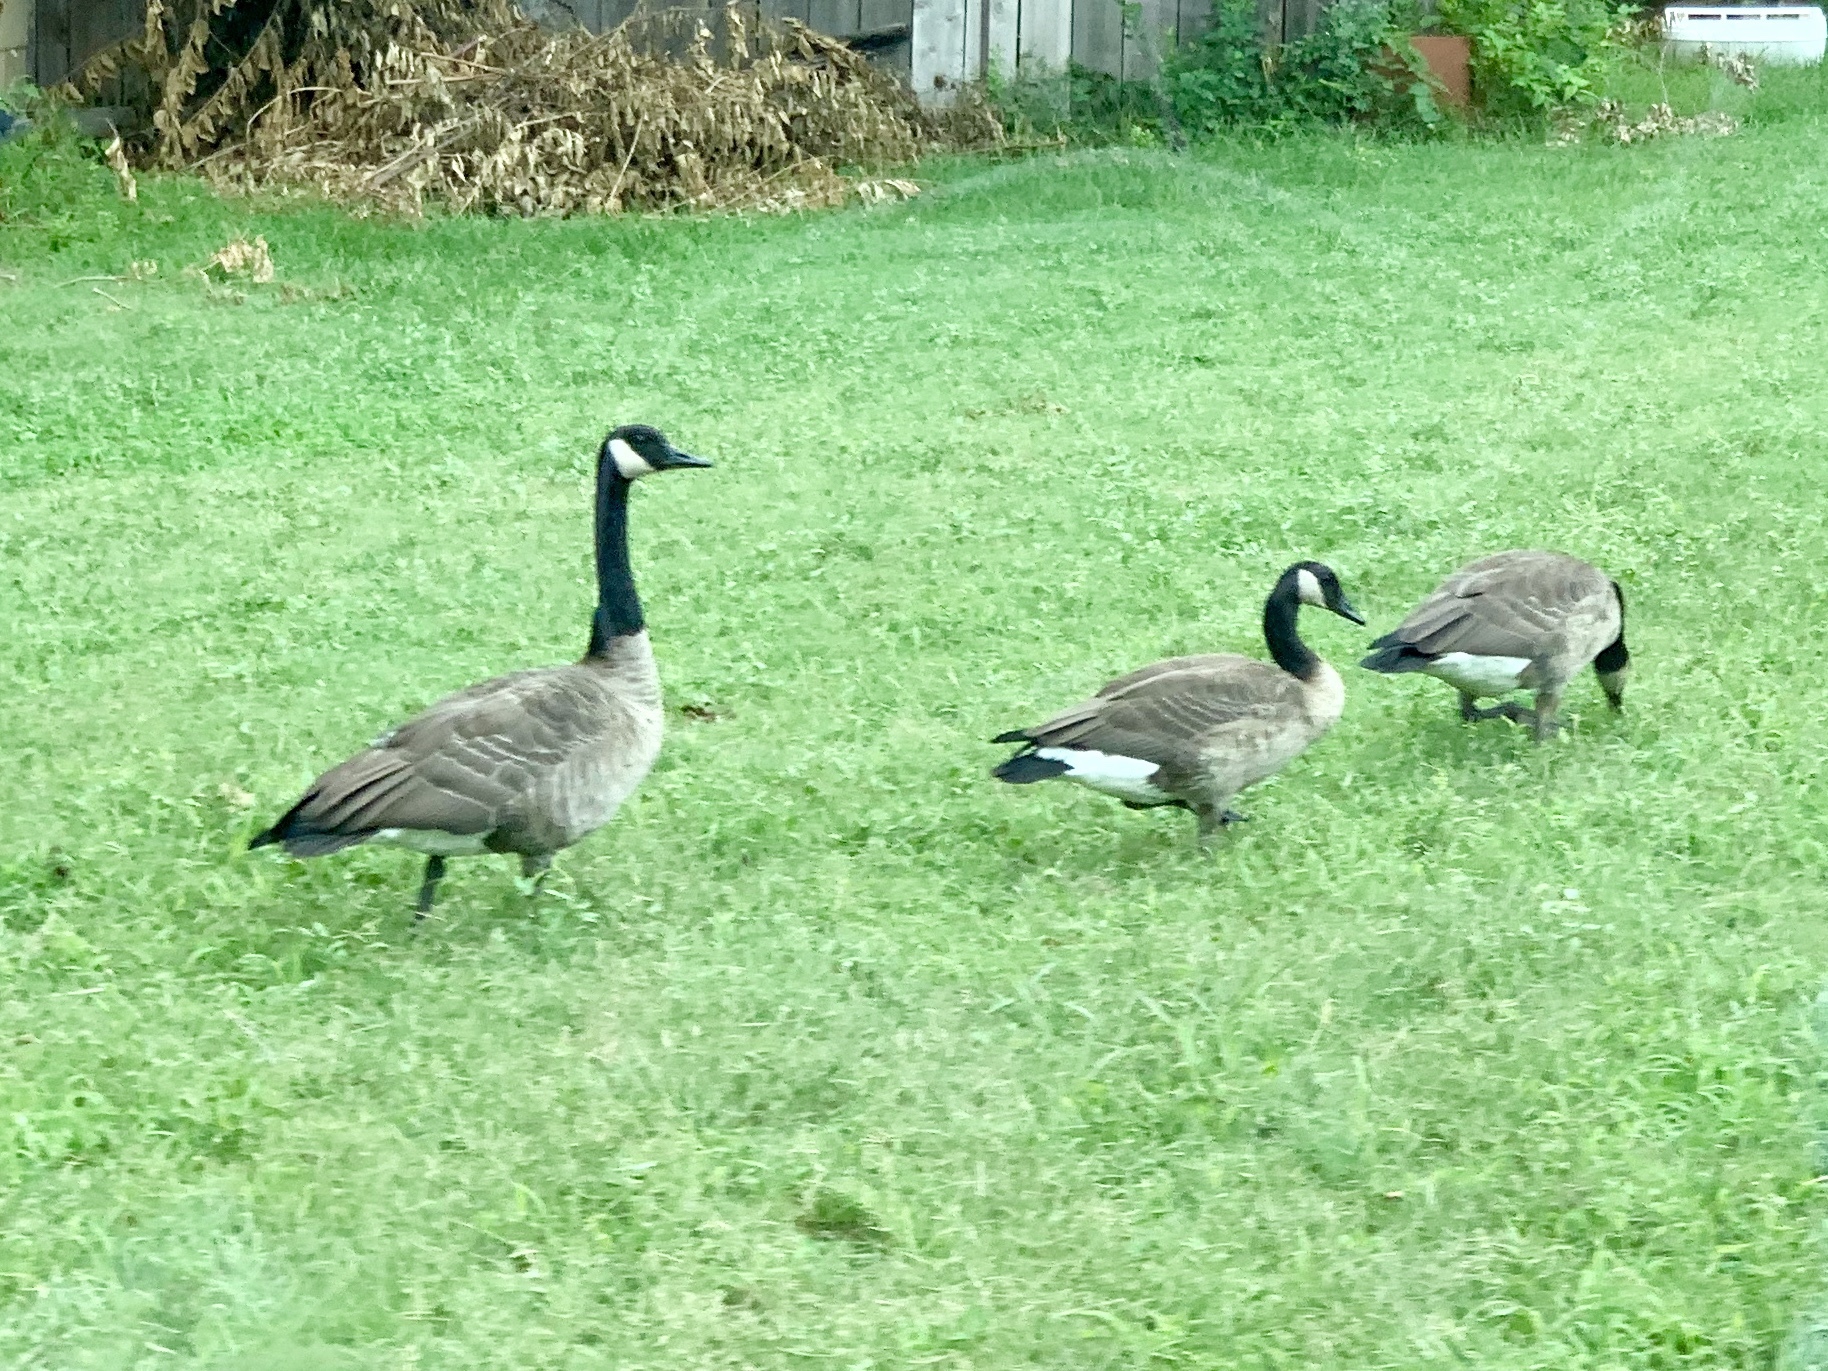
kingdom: Animalia
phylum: Chordata
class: Aves
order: Anseriformes
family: Anatidae
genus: Branta
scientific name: Branta canadensis
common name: Canada goose
